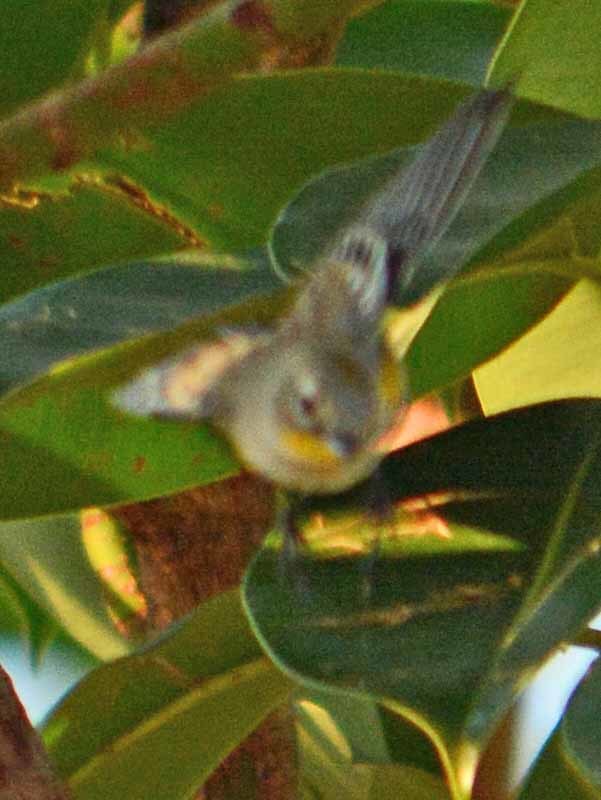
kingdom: Animalia
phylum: Chordata
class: Aves
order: Passeriformes
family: Parulidae
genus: Setophaga
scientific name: Setophaga auduboni
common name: Audubon's warbler
